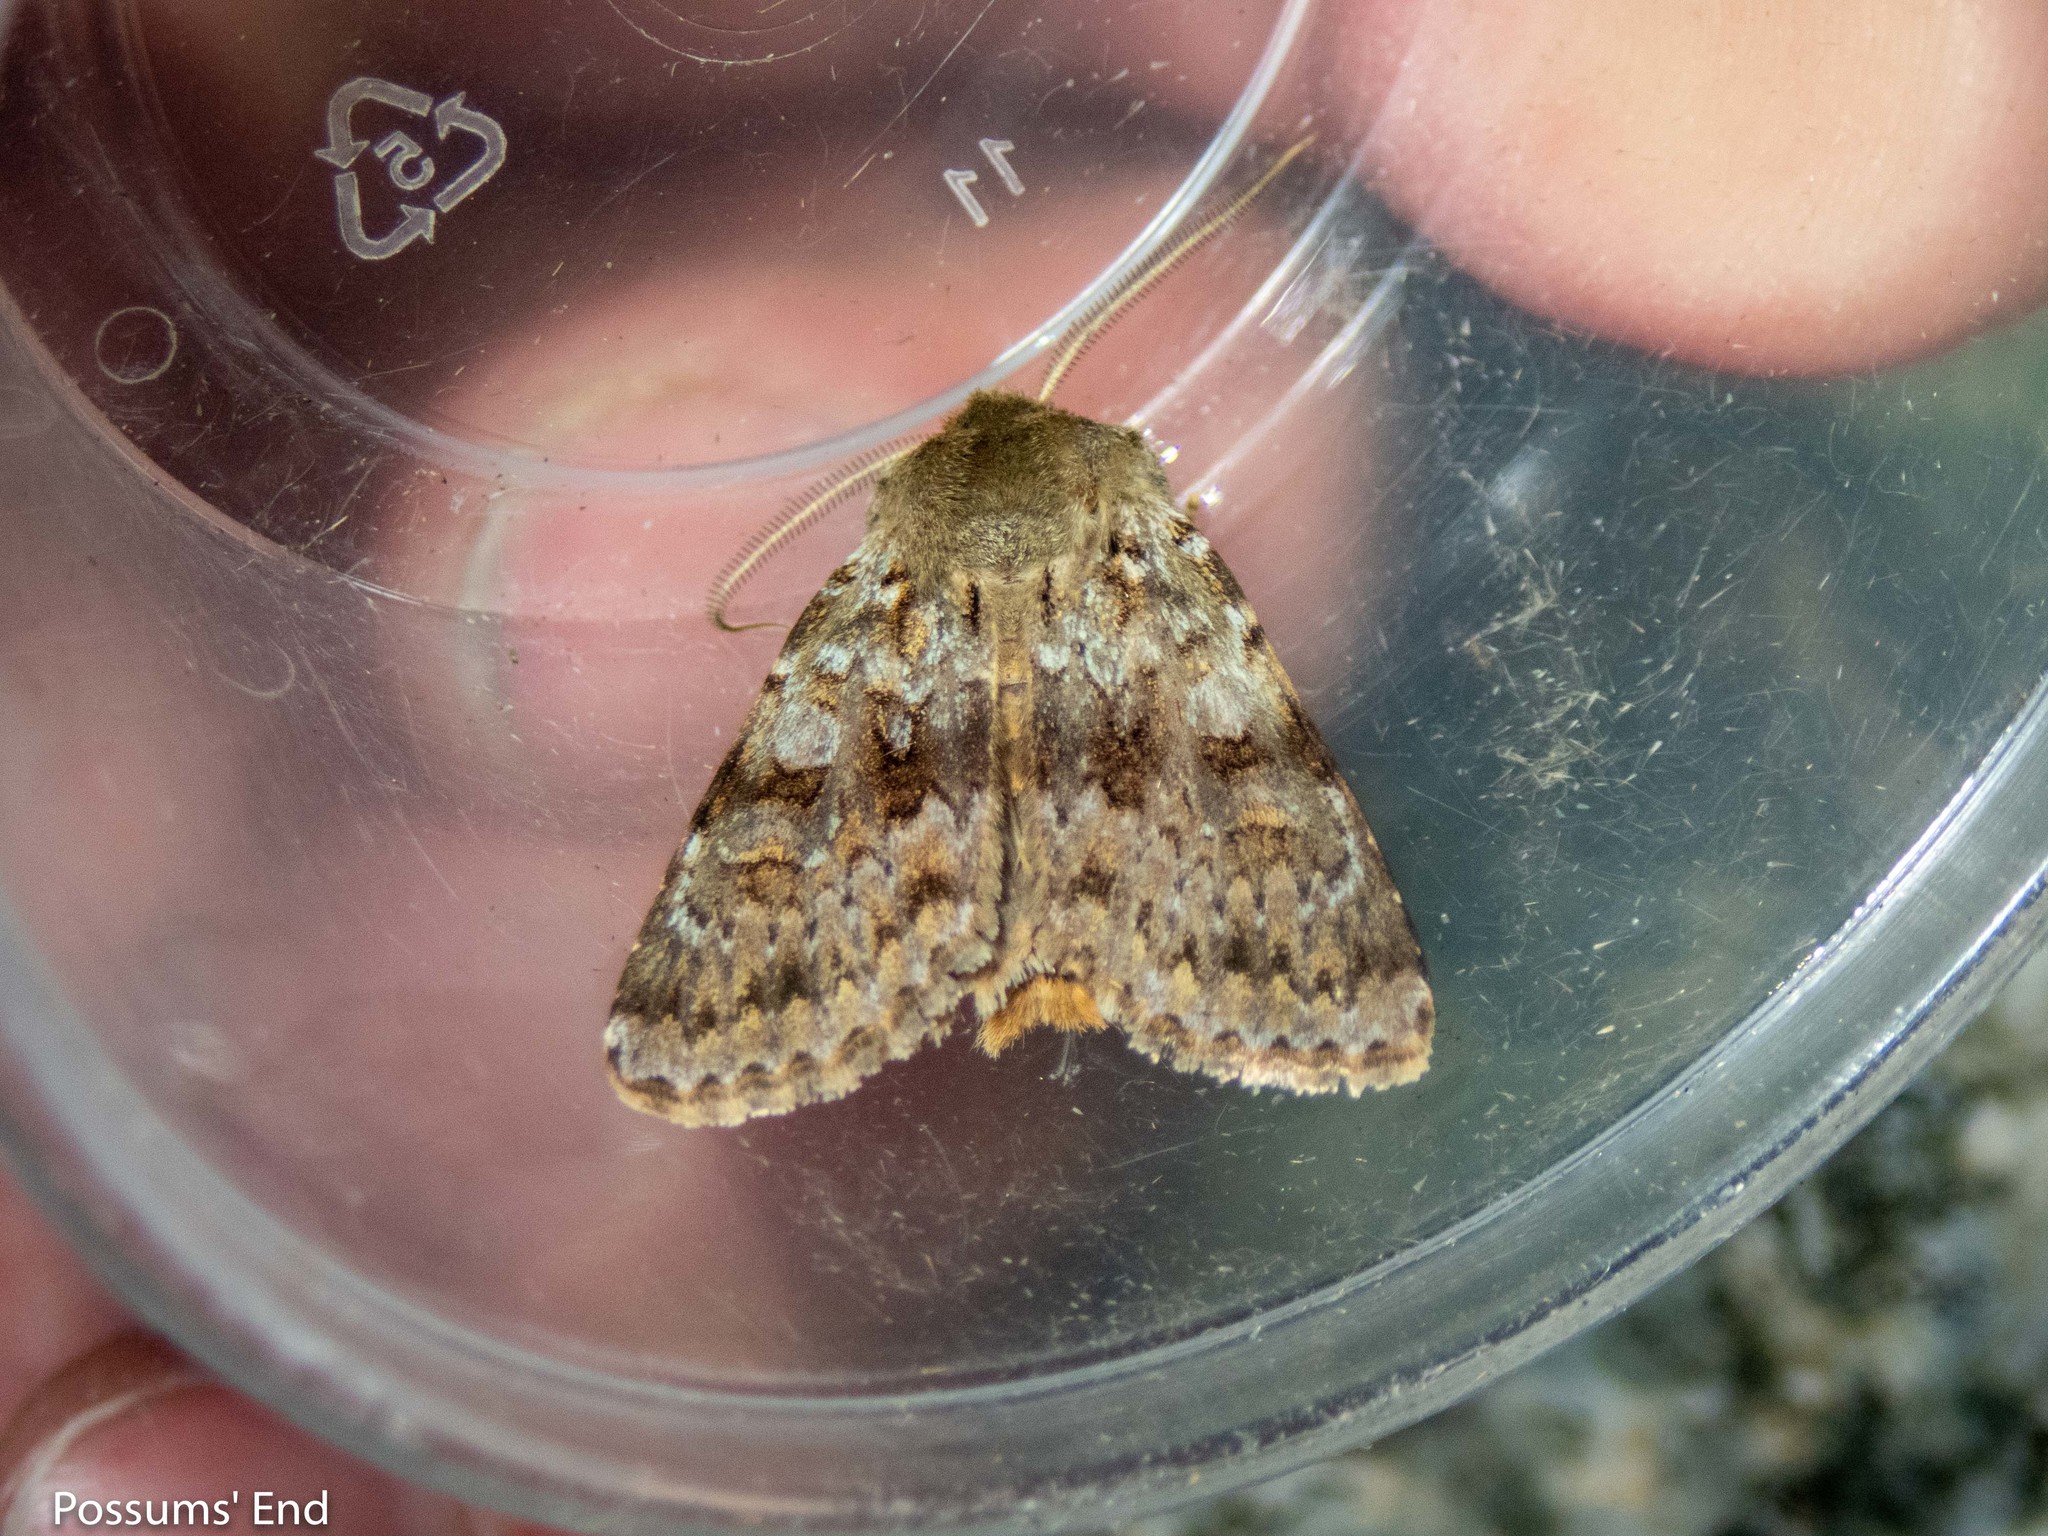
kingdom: Animalia
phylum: Arthropoda
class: Insecta
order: Lepidoptera
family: Noctuidae
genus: Ichneutica
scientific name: Ichneutica
